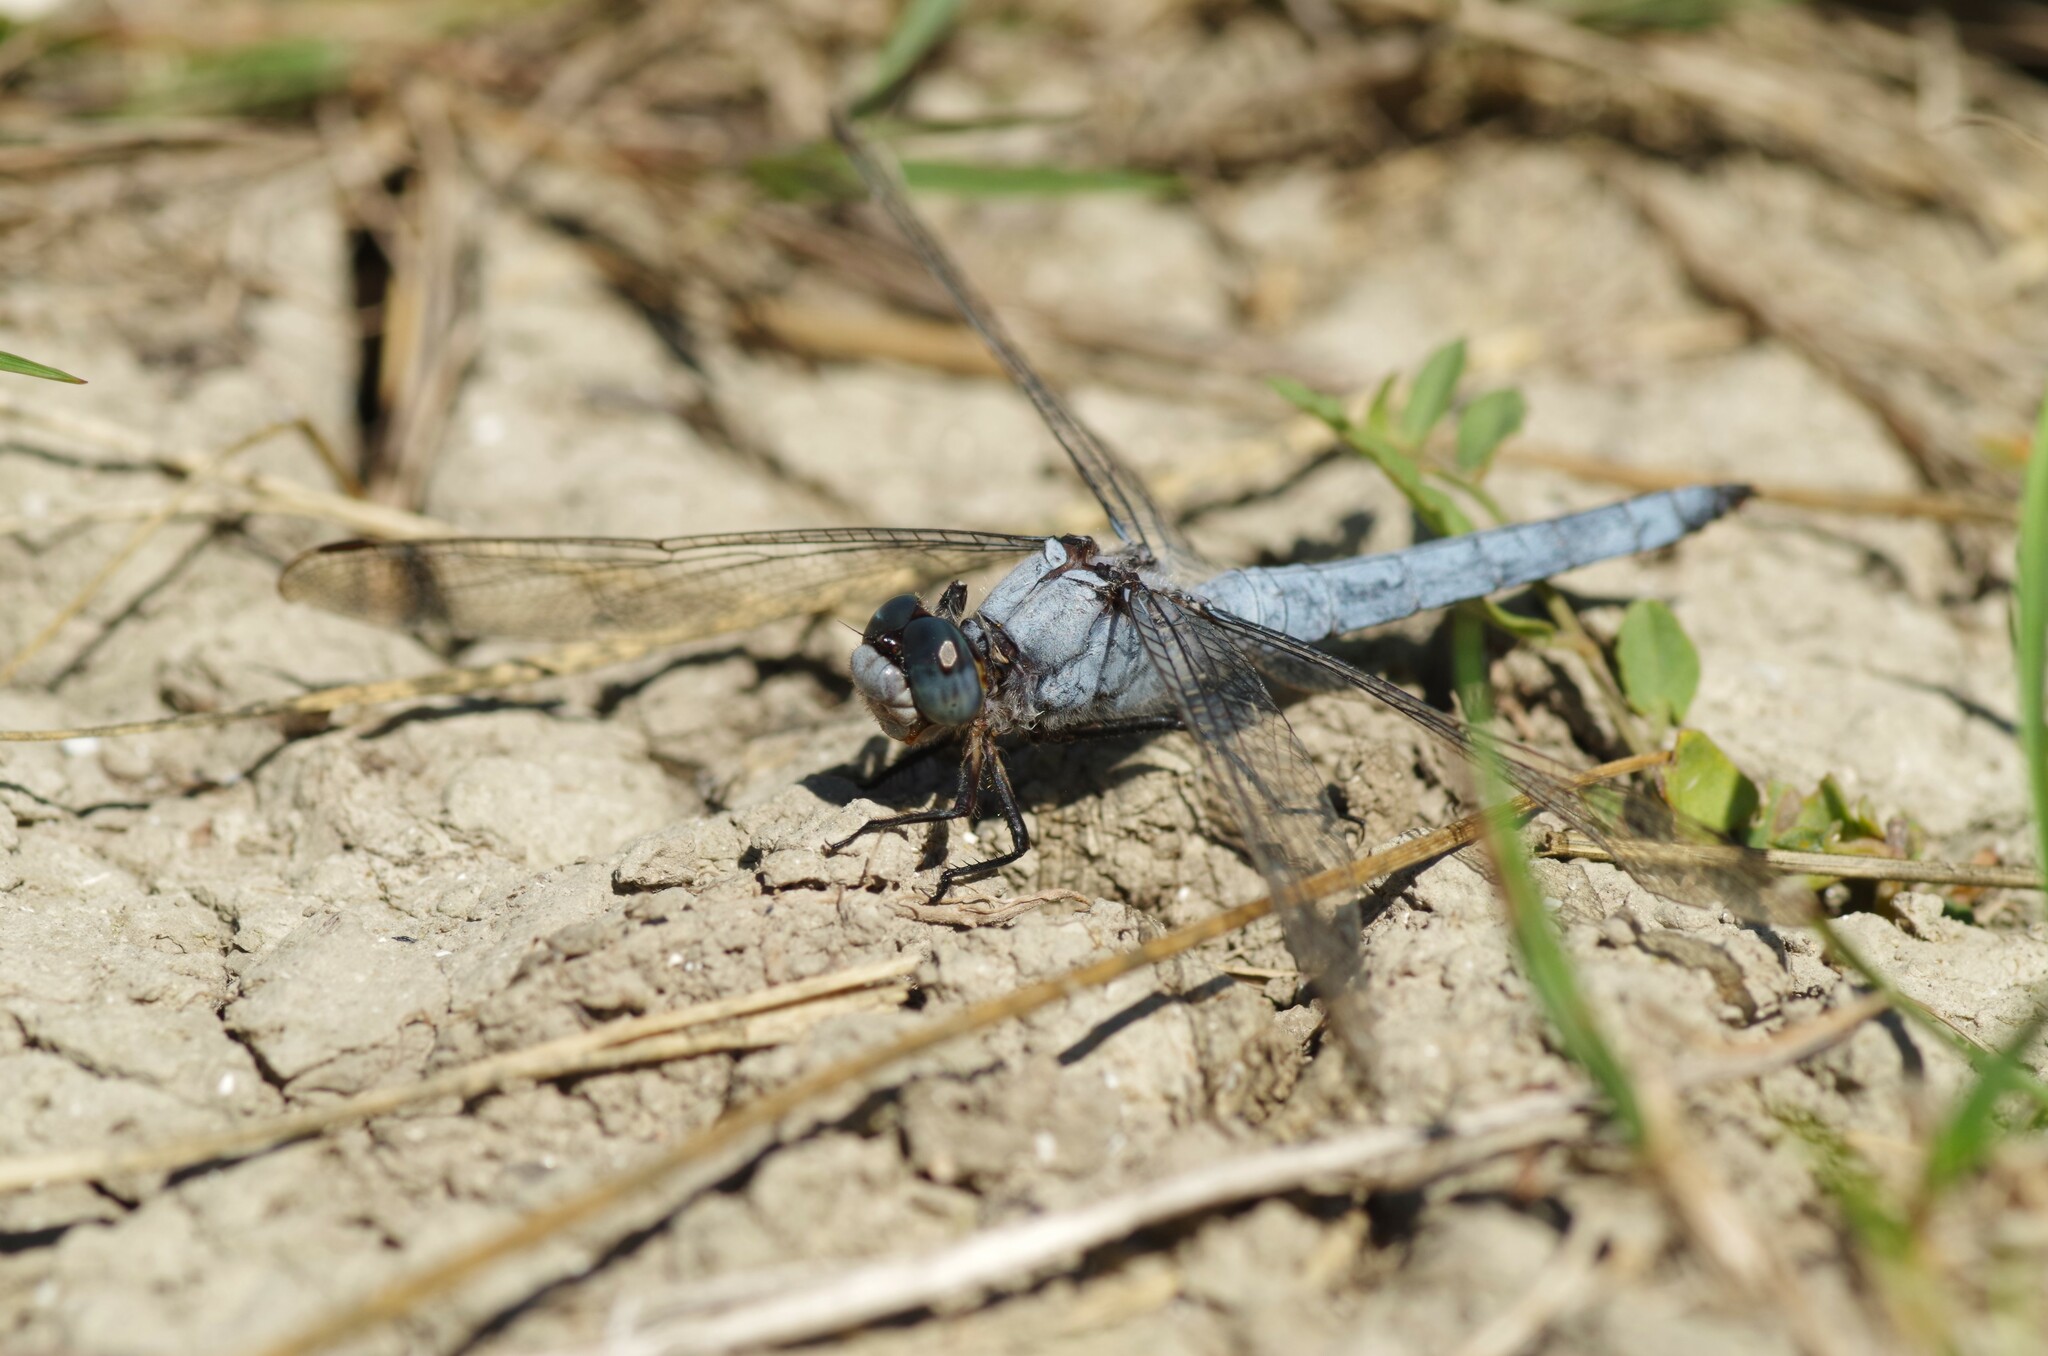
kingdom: Animalia
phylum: Arthropoda
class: Insecta
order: Odonata
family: Libellulidae
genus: Orthetrum
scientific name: Orthetrum brunneum
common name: Southern skimmer
